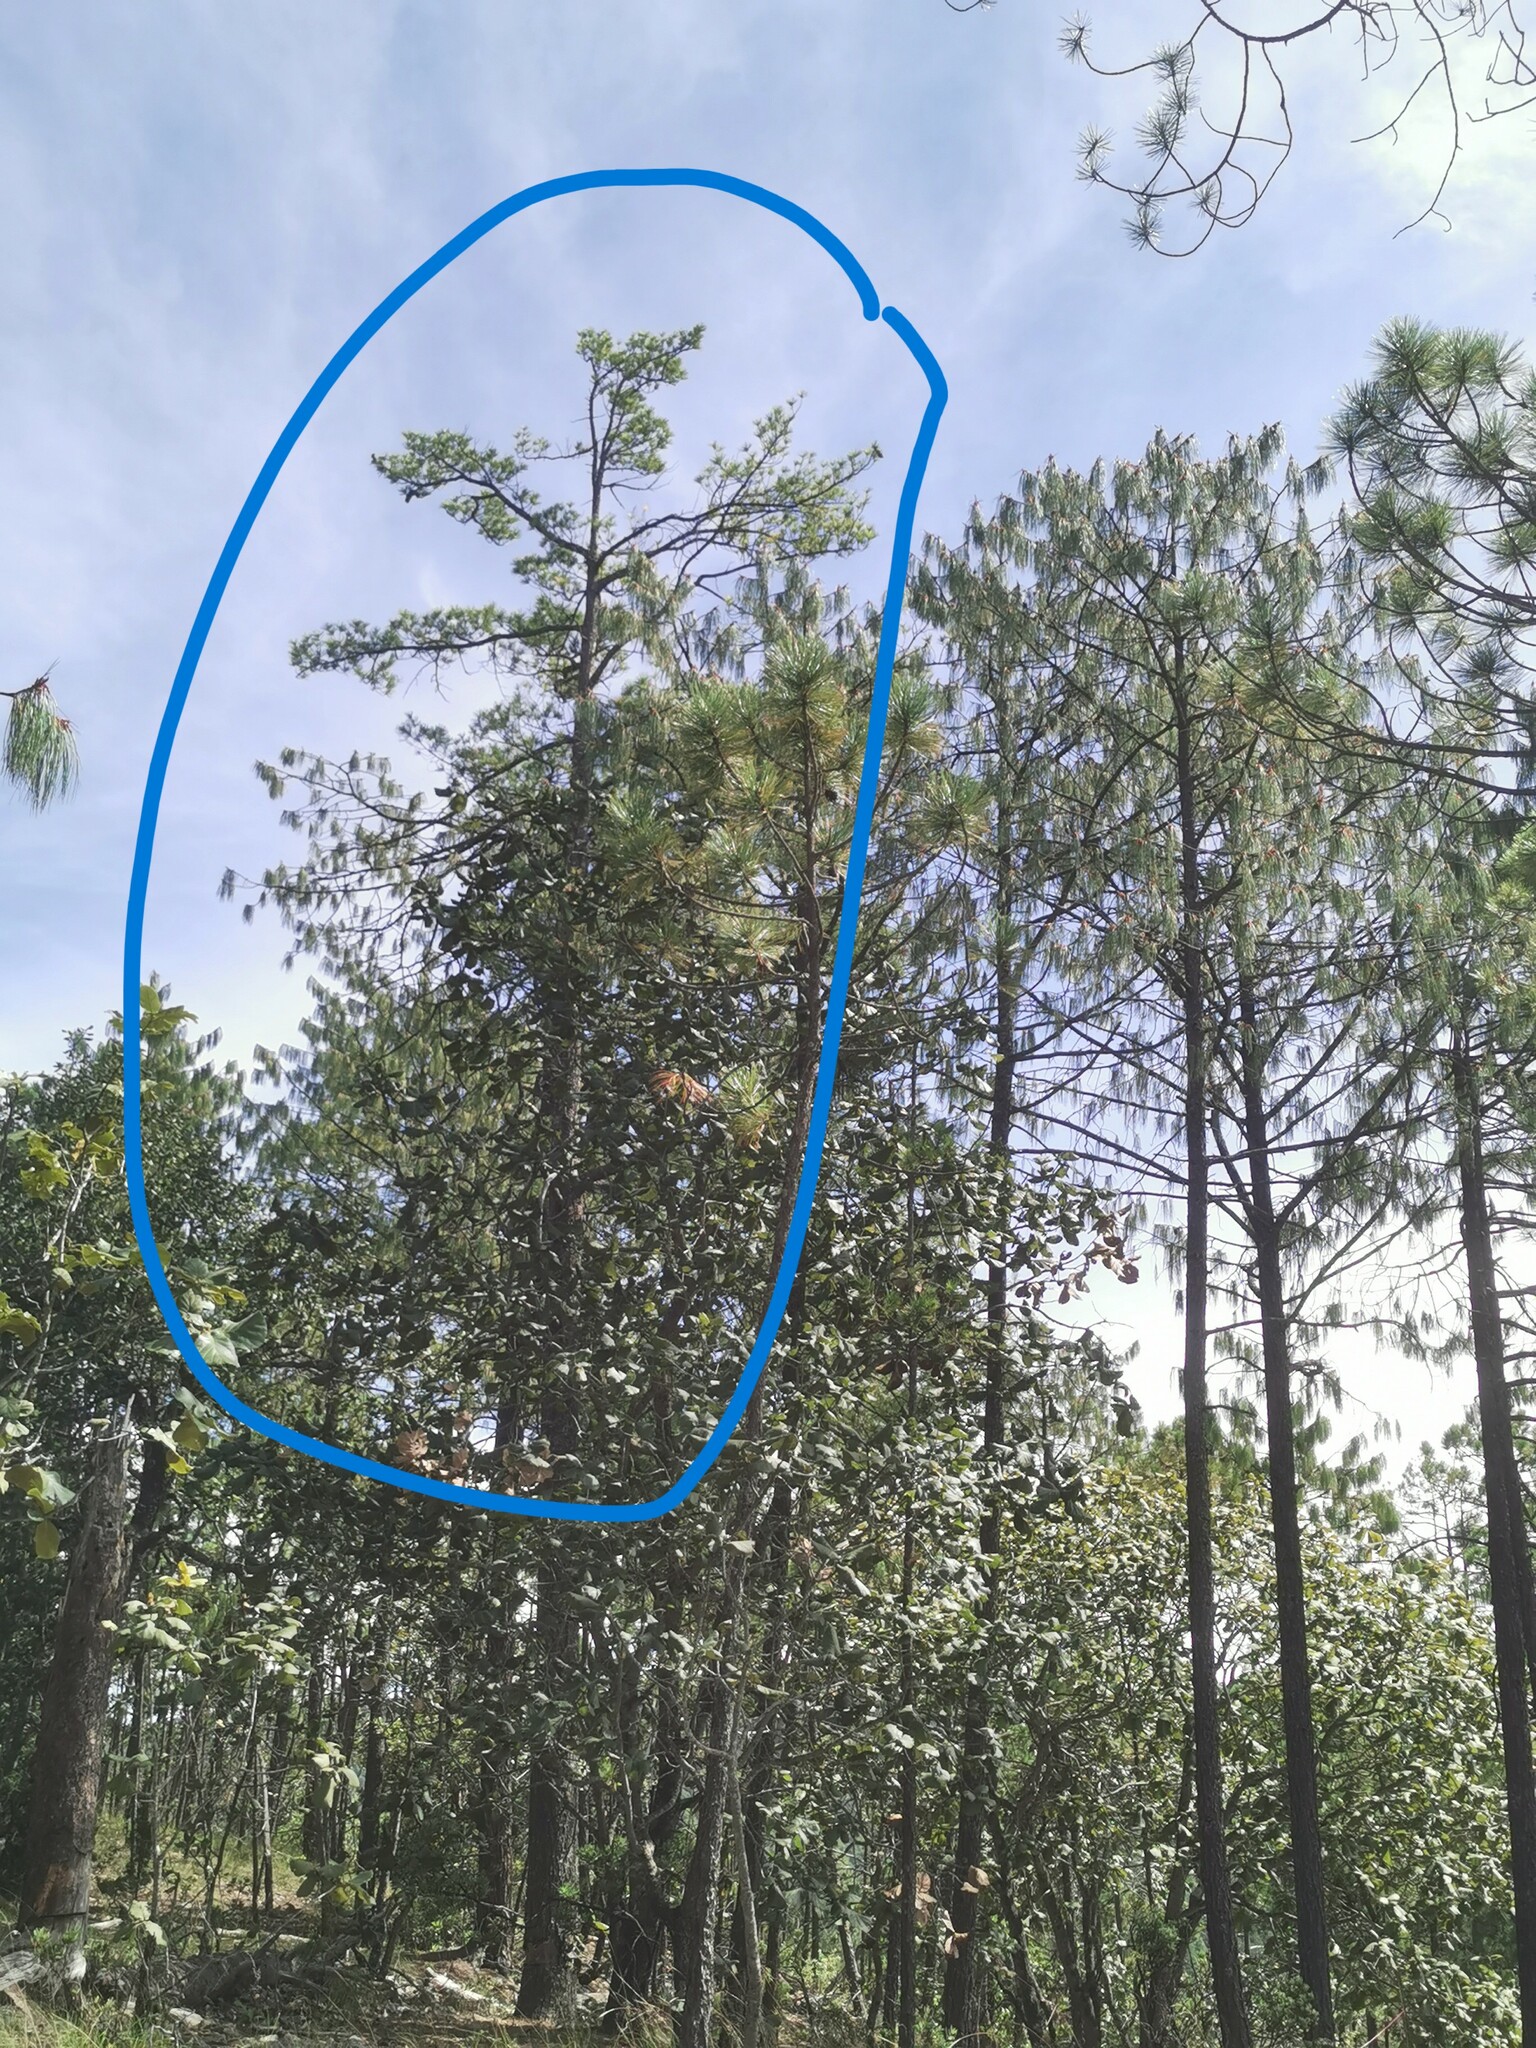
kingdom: Plantae
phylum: Tracheophyta
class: Pinopsida
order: Pinales
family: Pinaceae
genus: Pinus
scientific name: Pinus strobiformis
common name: Southwestern white pine
